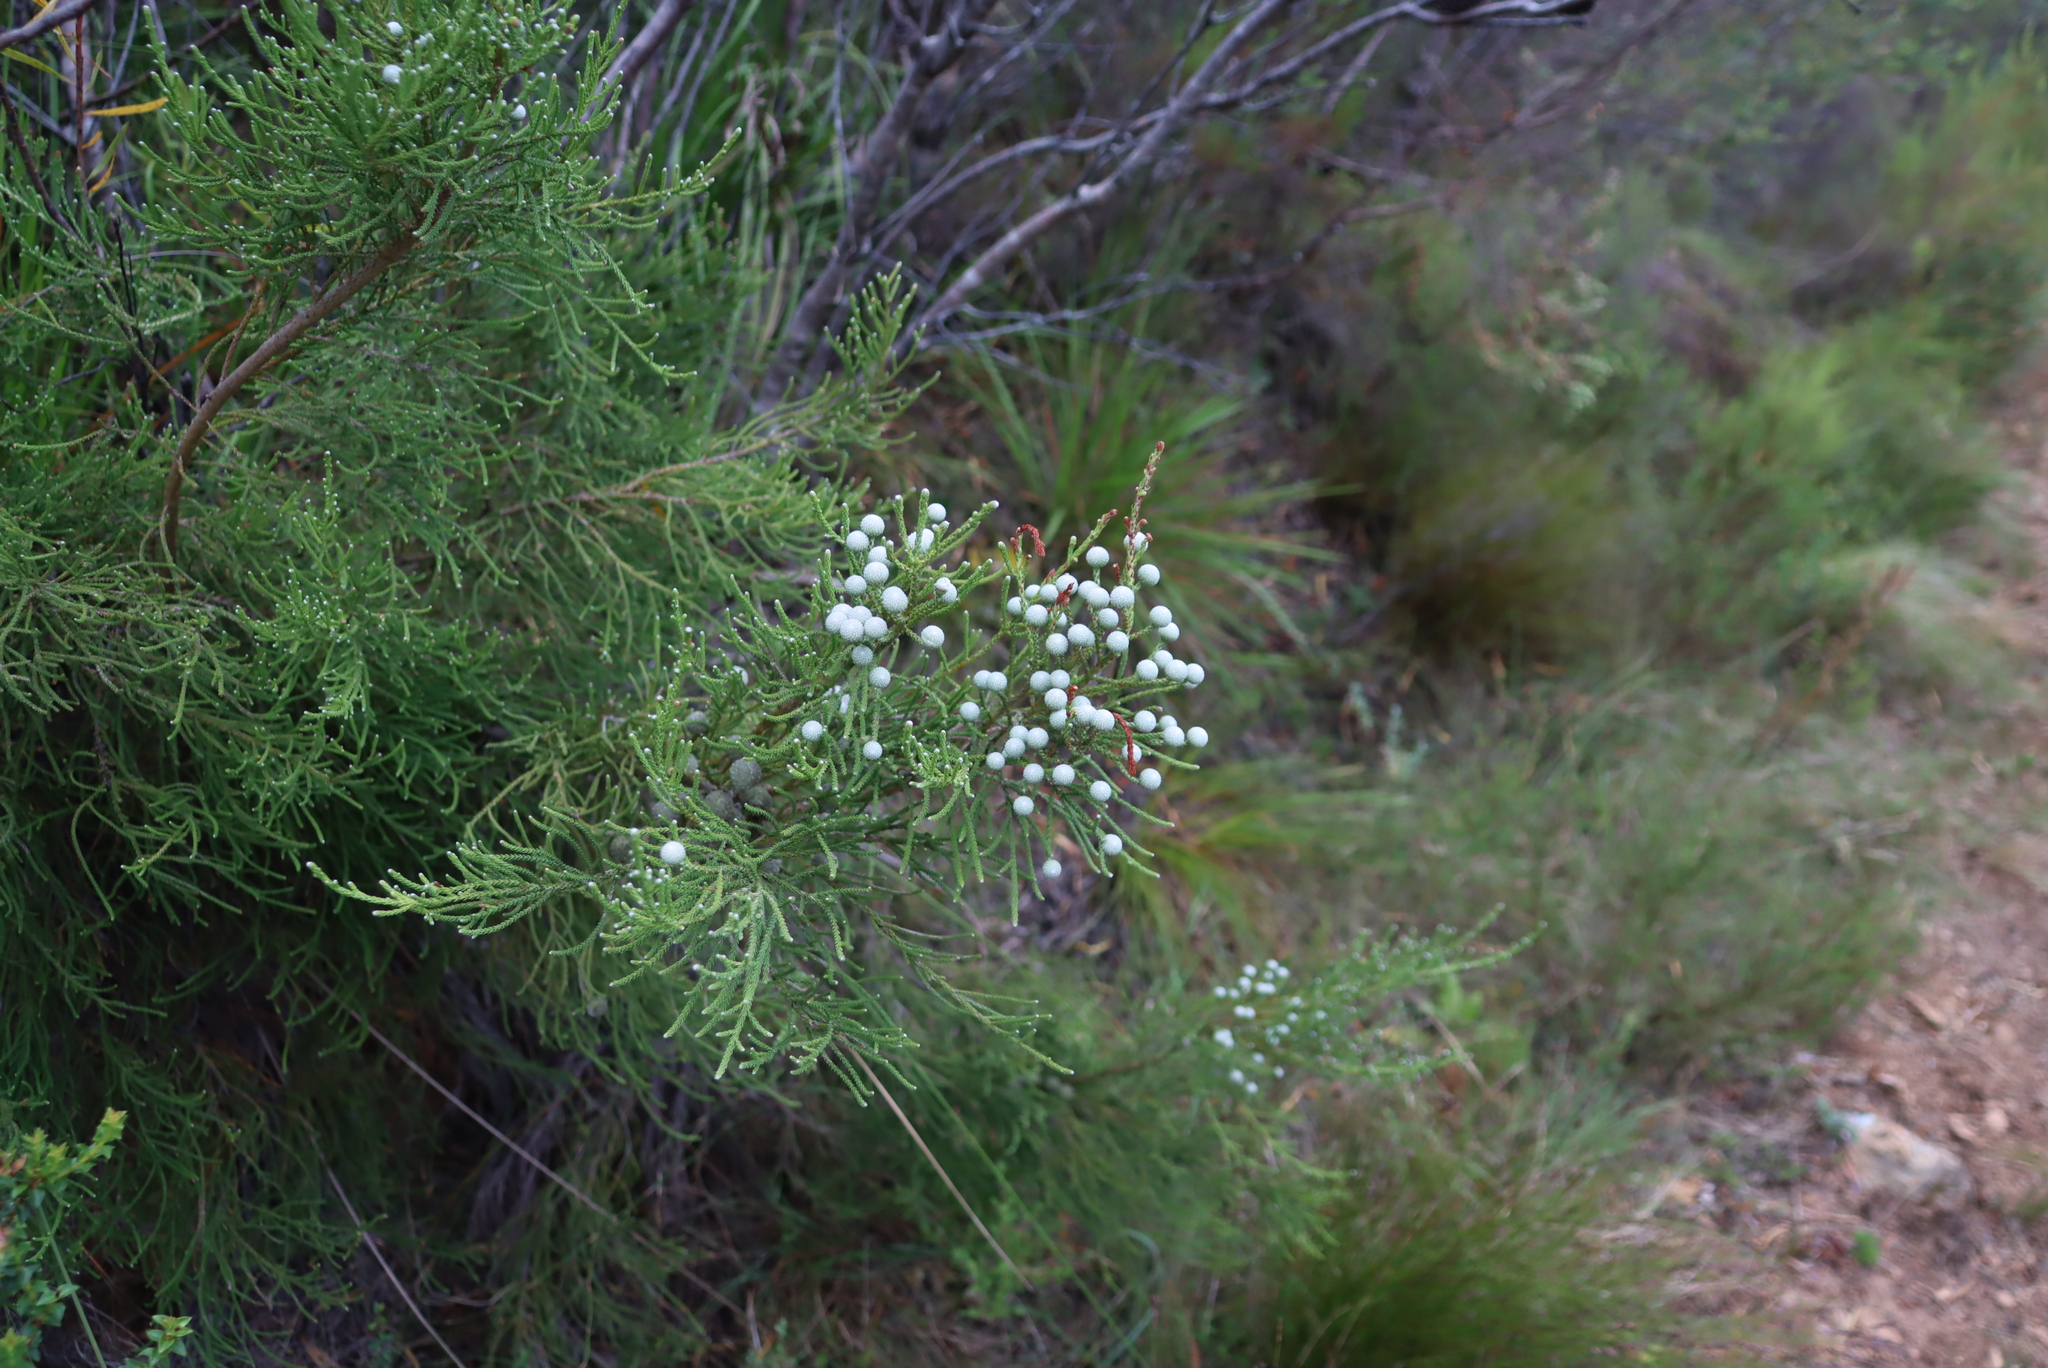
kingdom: Plantae
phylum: Tracheophyta
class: Magnoliopsida
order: Bruniales
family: Bruniaceae
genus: Brunia
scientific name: Brunia noduliflora
